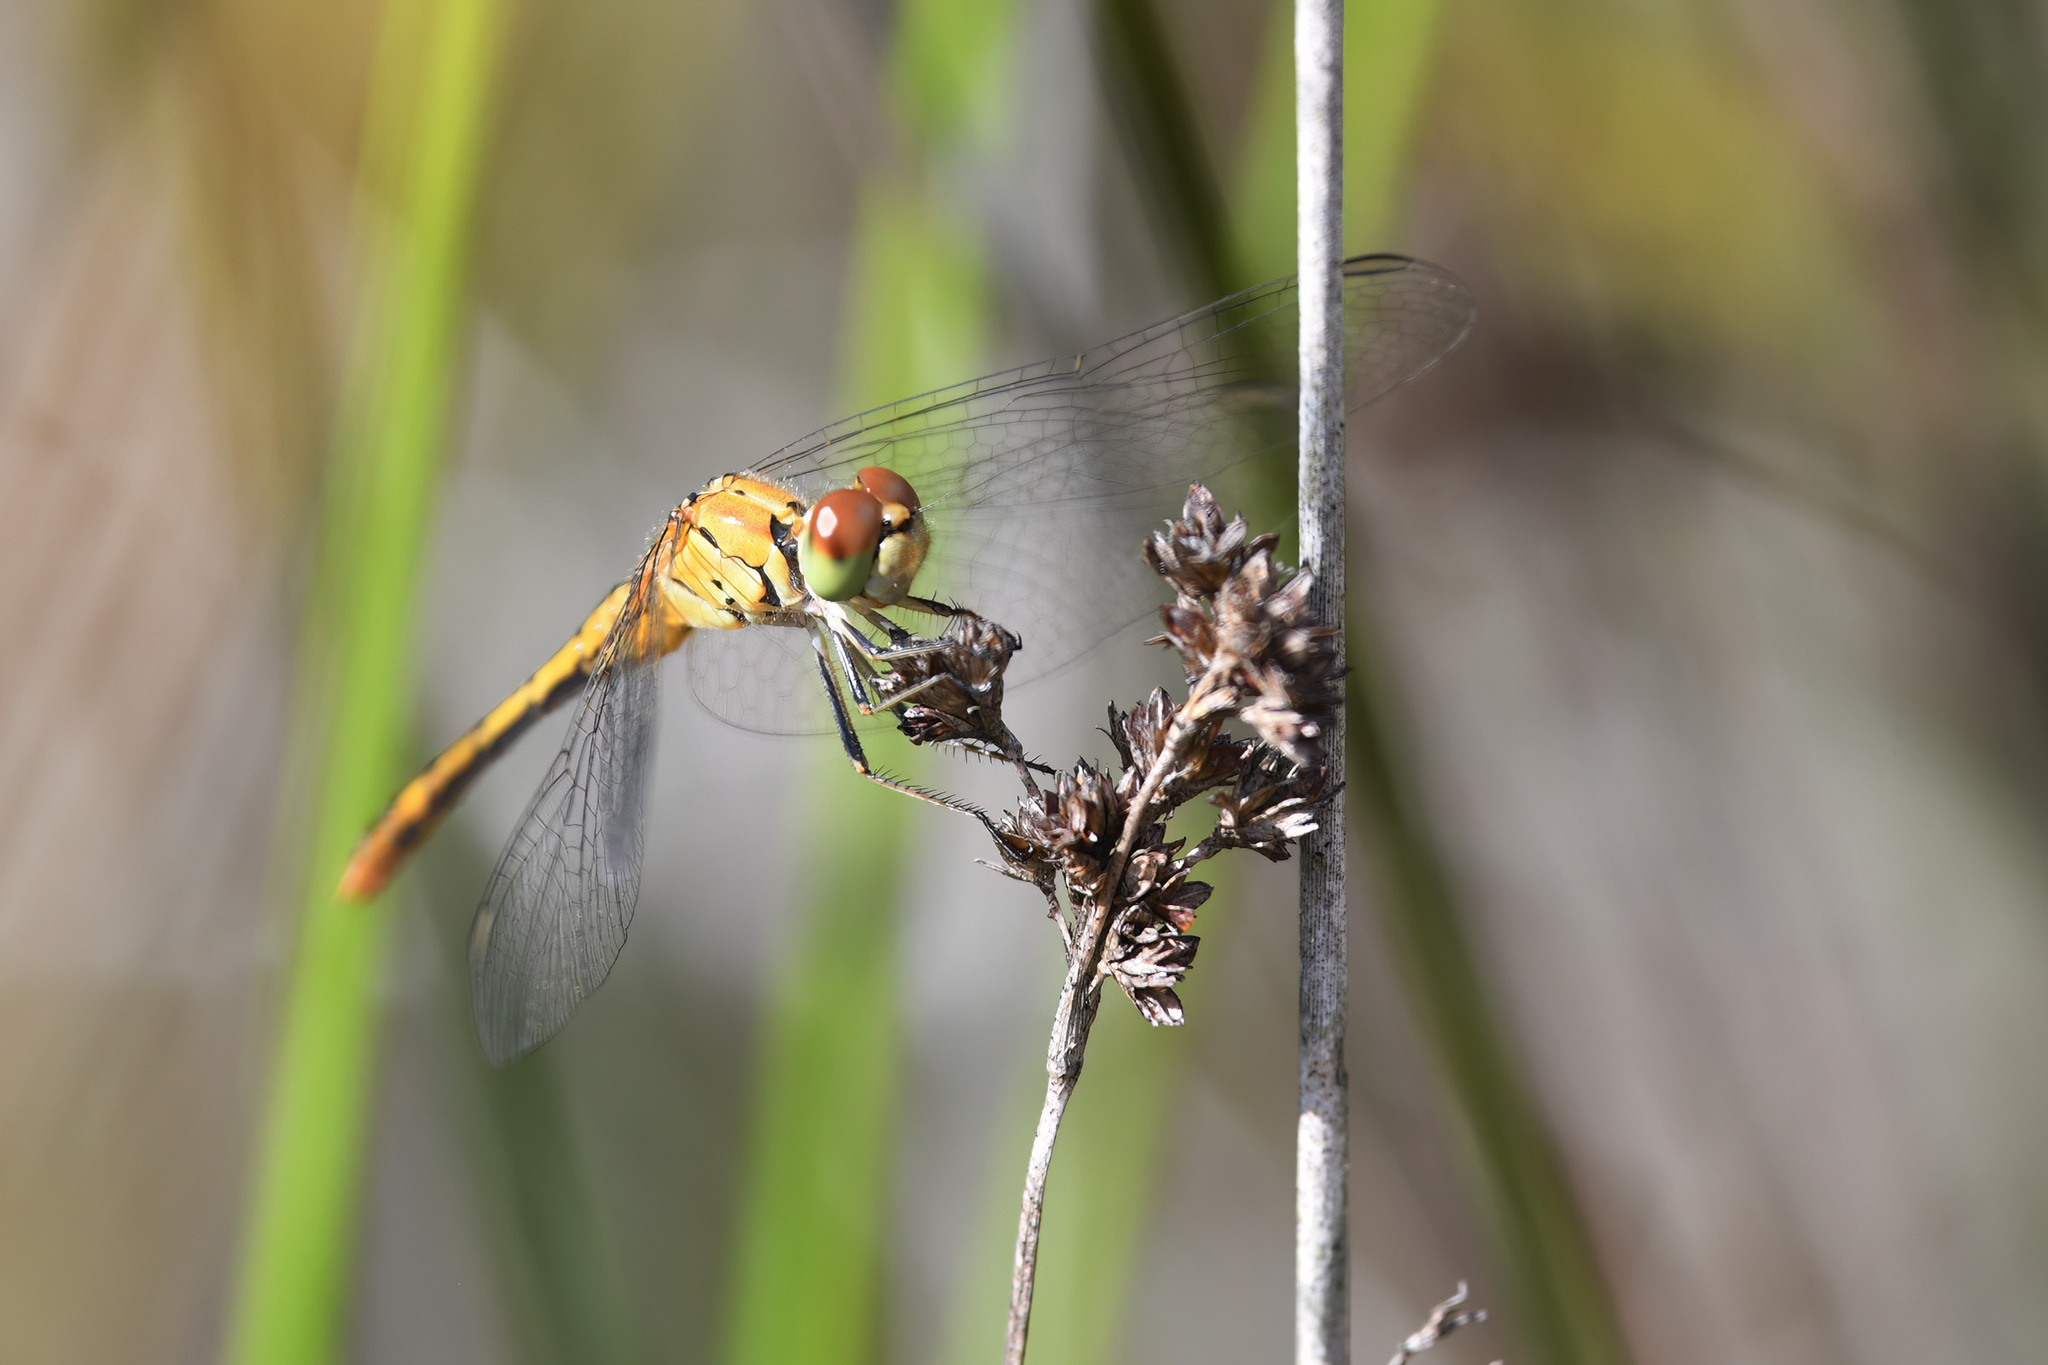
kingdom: Animalia
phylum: Arthropoda
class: Insecta
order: Odonata
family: Libellulidae
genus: Diplacodes
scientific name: Diplacodes bipunctata
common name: Red percher dragonfly
